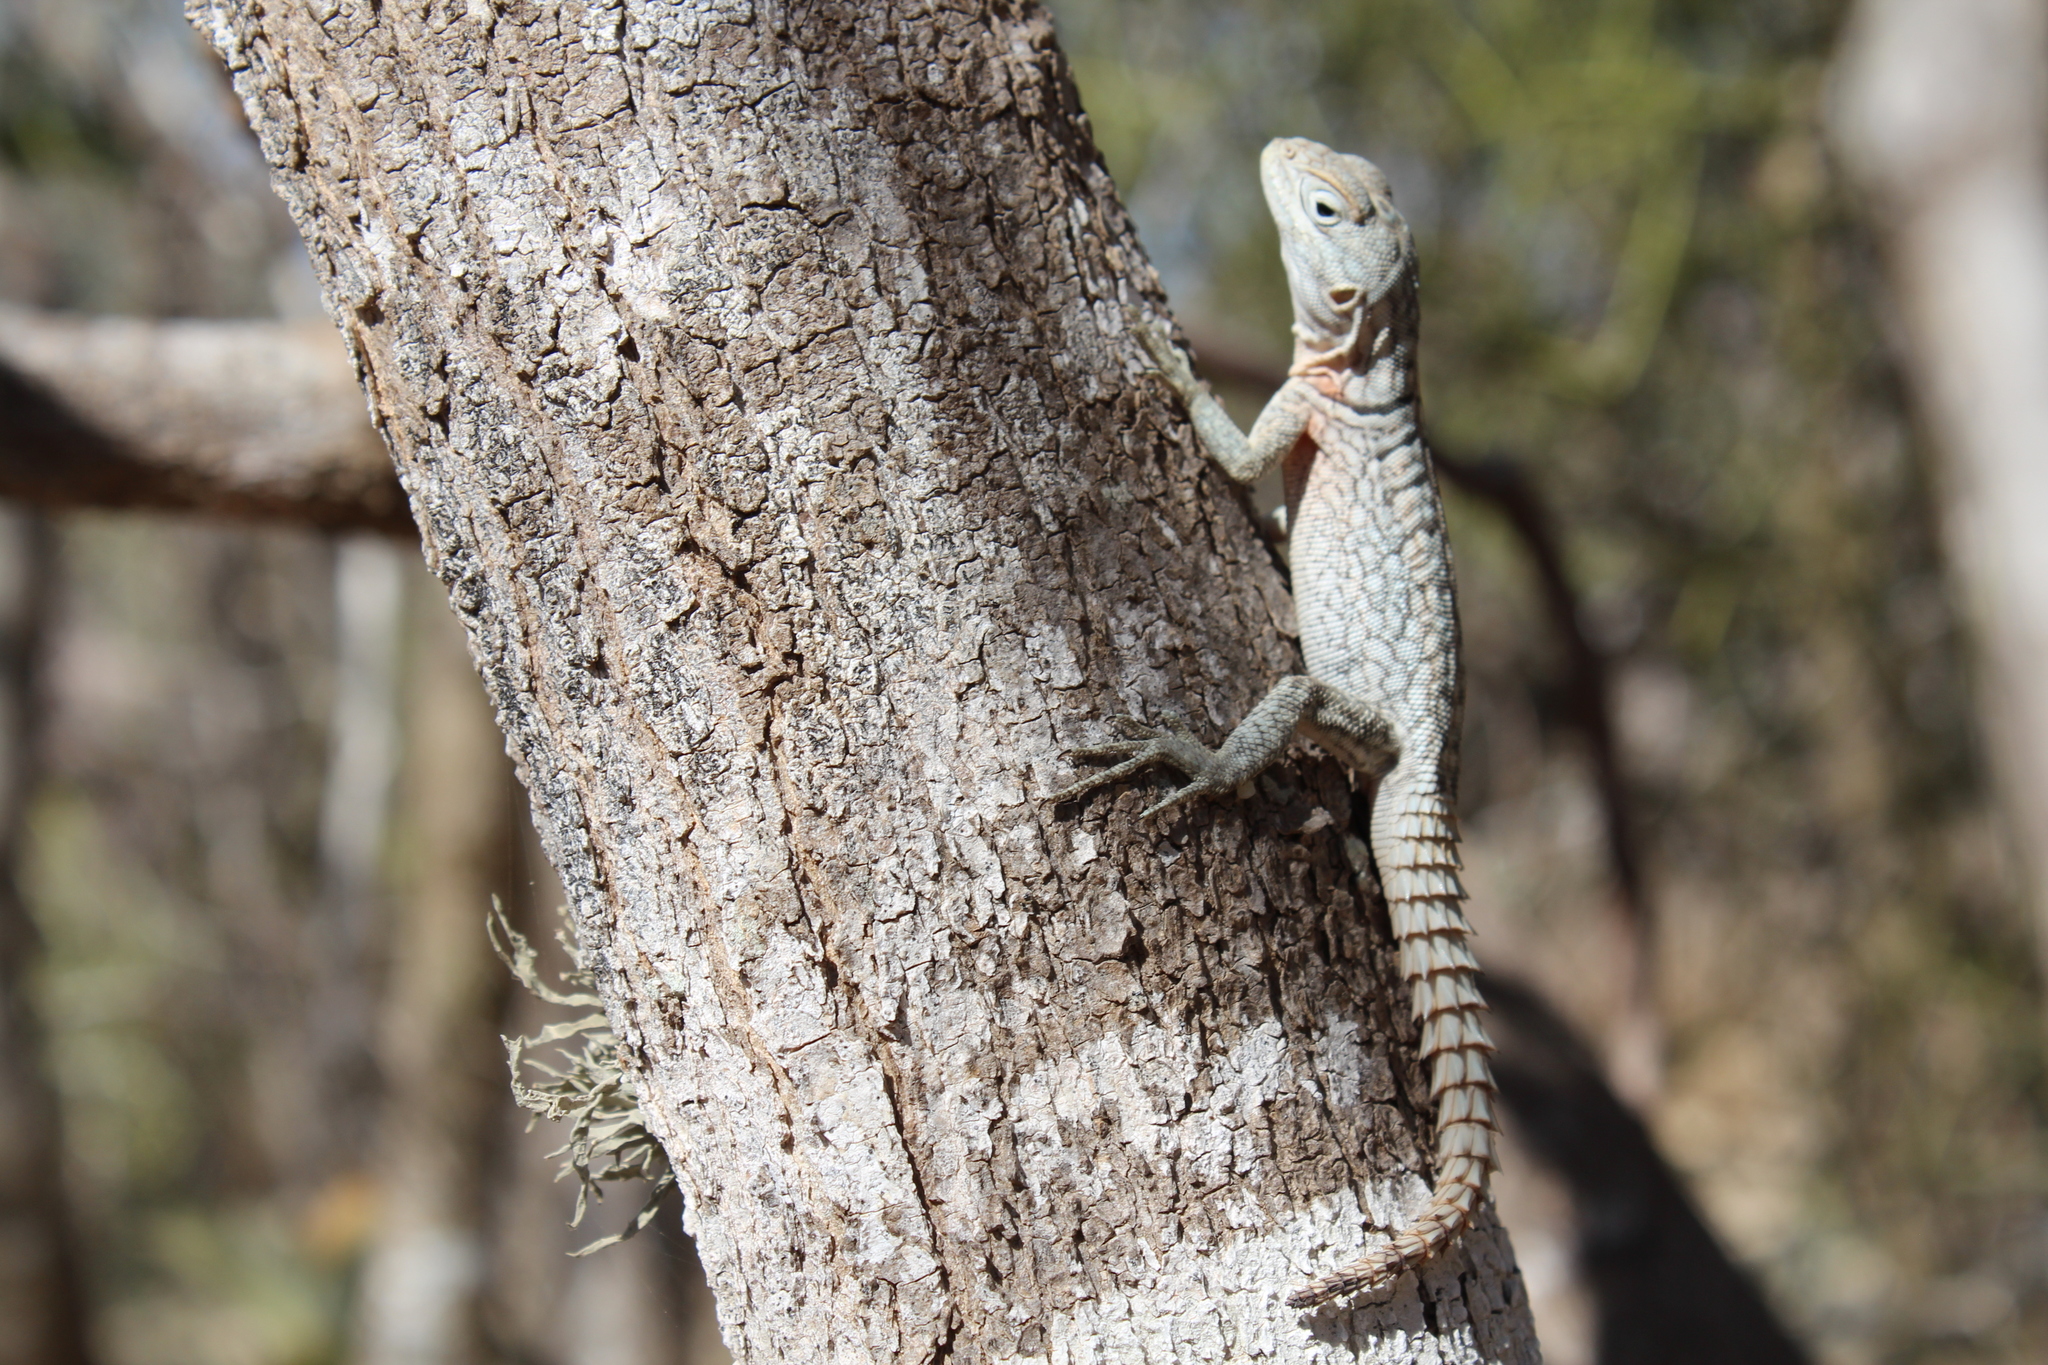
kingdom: Animalia
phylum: Chordata
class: Squamata
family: Opluridae
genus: Oplurus
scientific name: Oplurus cyclurus
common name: Merrem's madagascar swift
